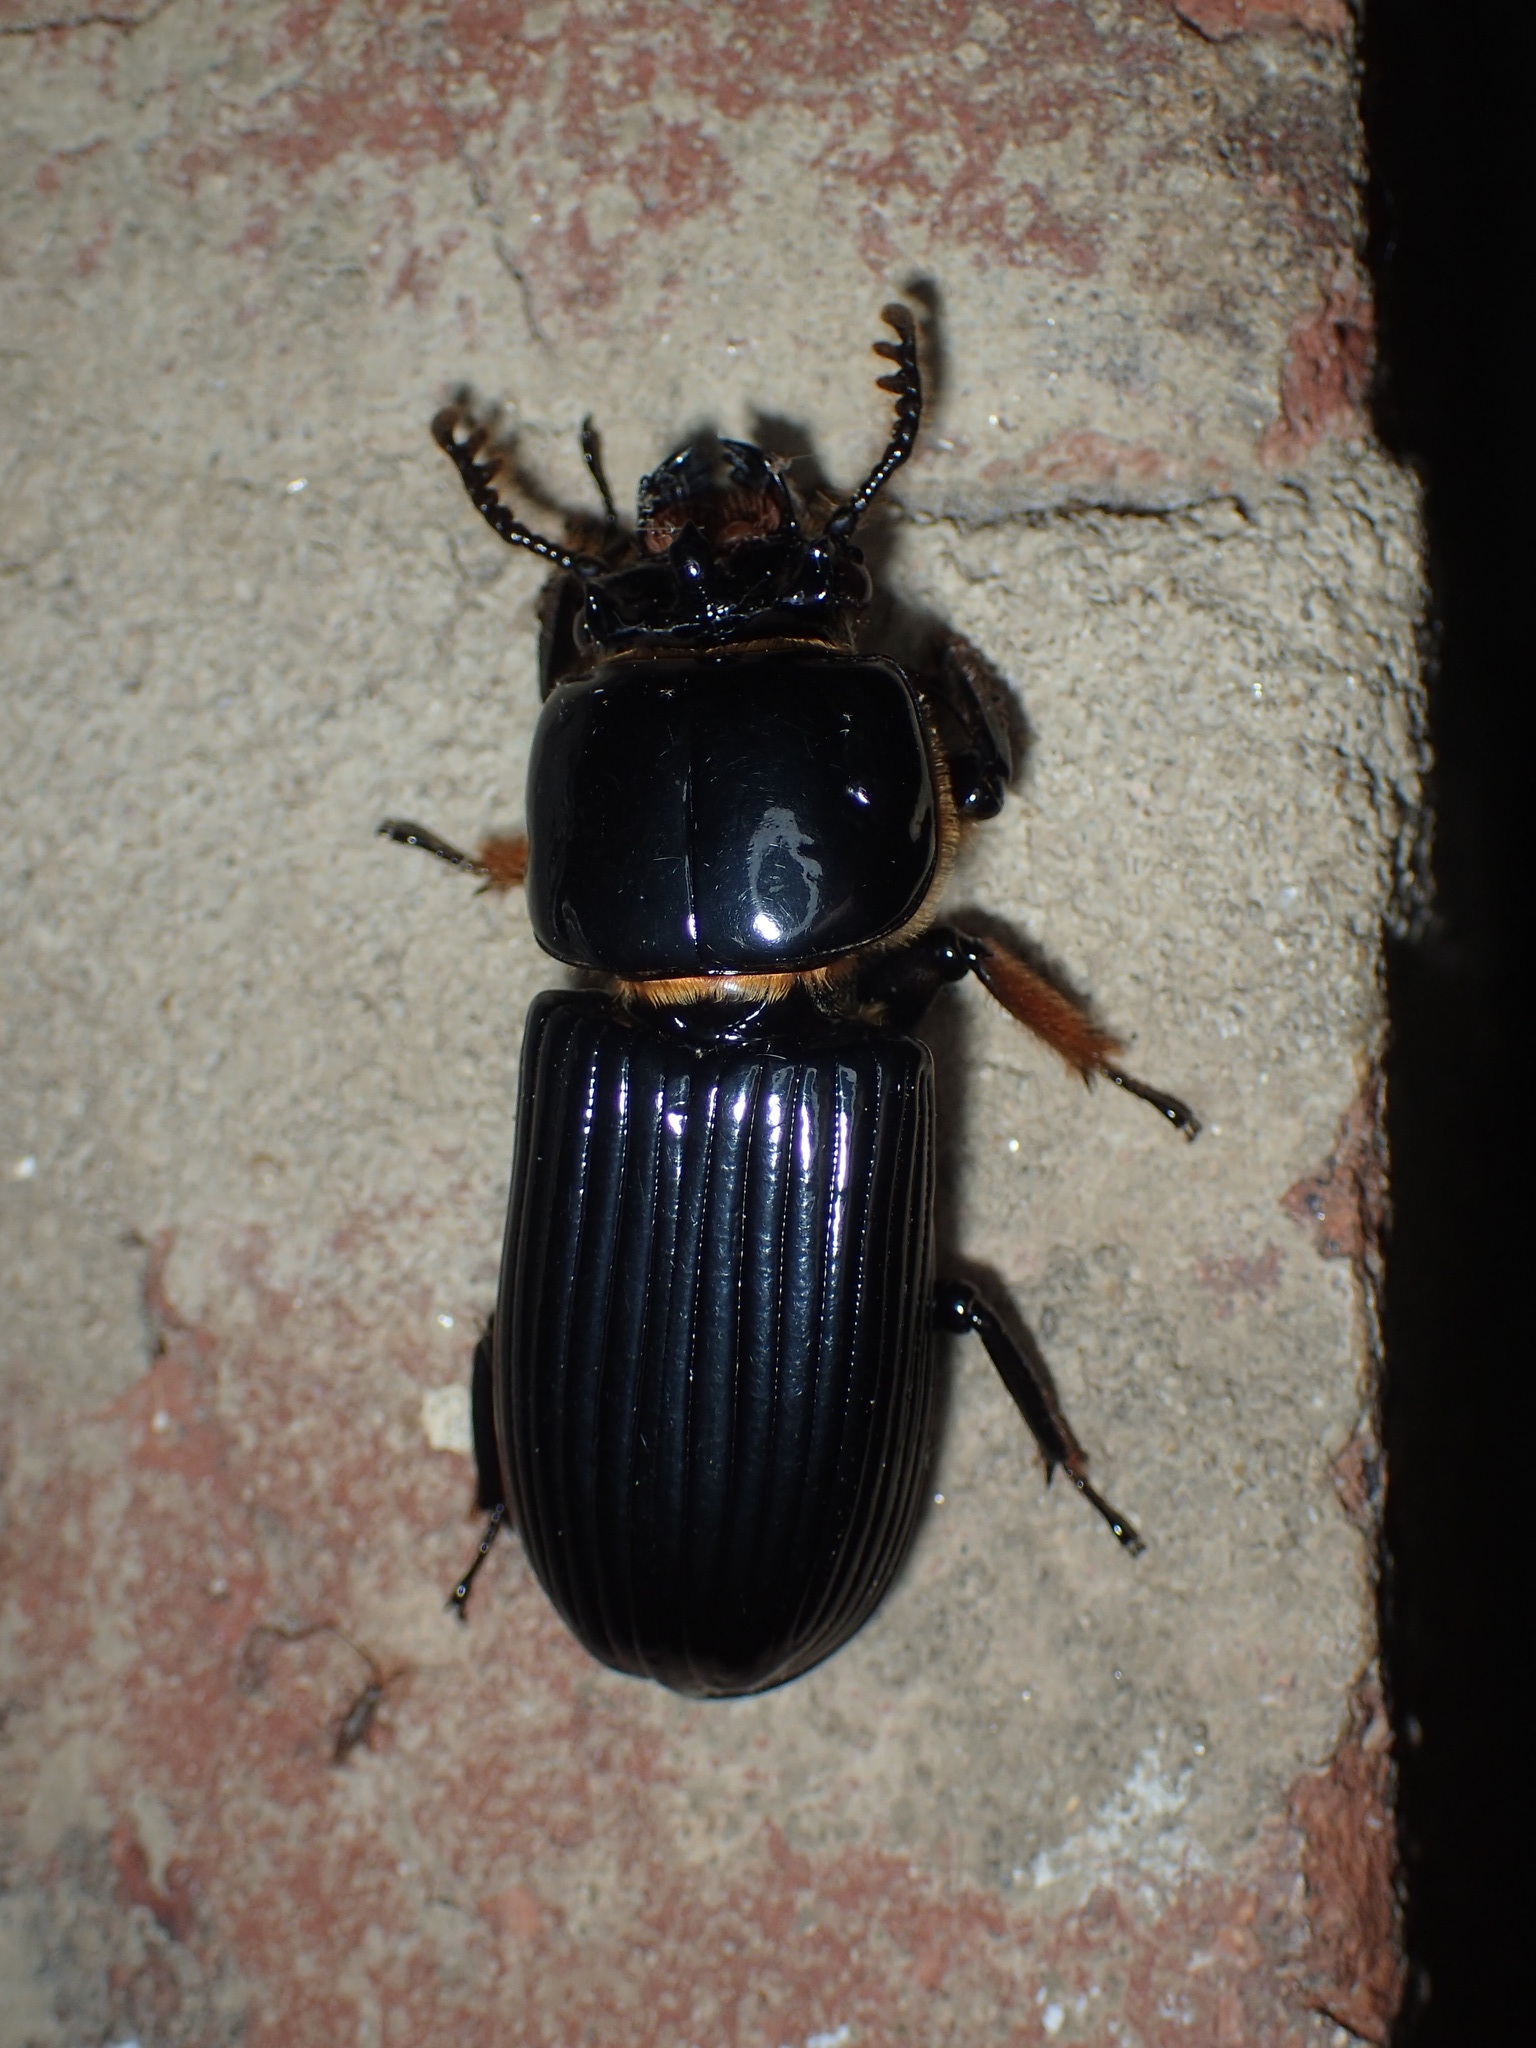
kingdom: Animalia
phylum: Arthropoda
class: Insecta
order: Coleoptera
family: Passalidae
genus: Odontotaenius
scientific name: Odontotaenius disjunctus
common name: Patent leather beetle
